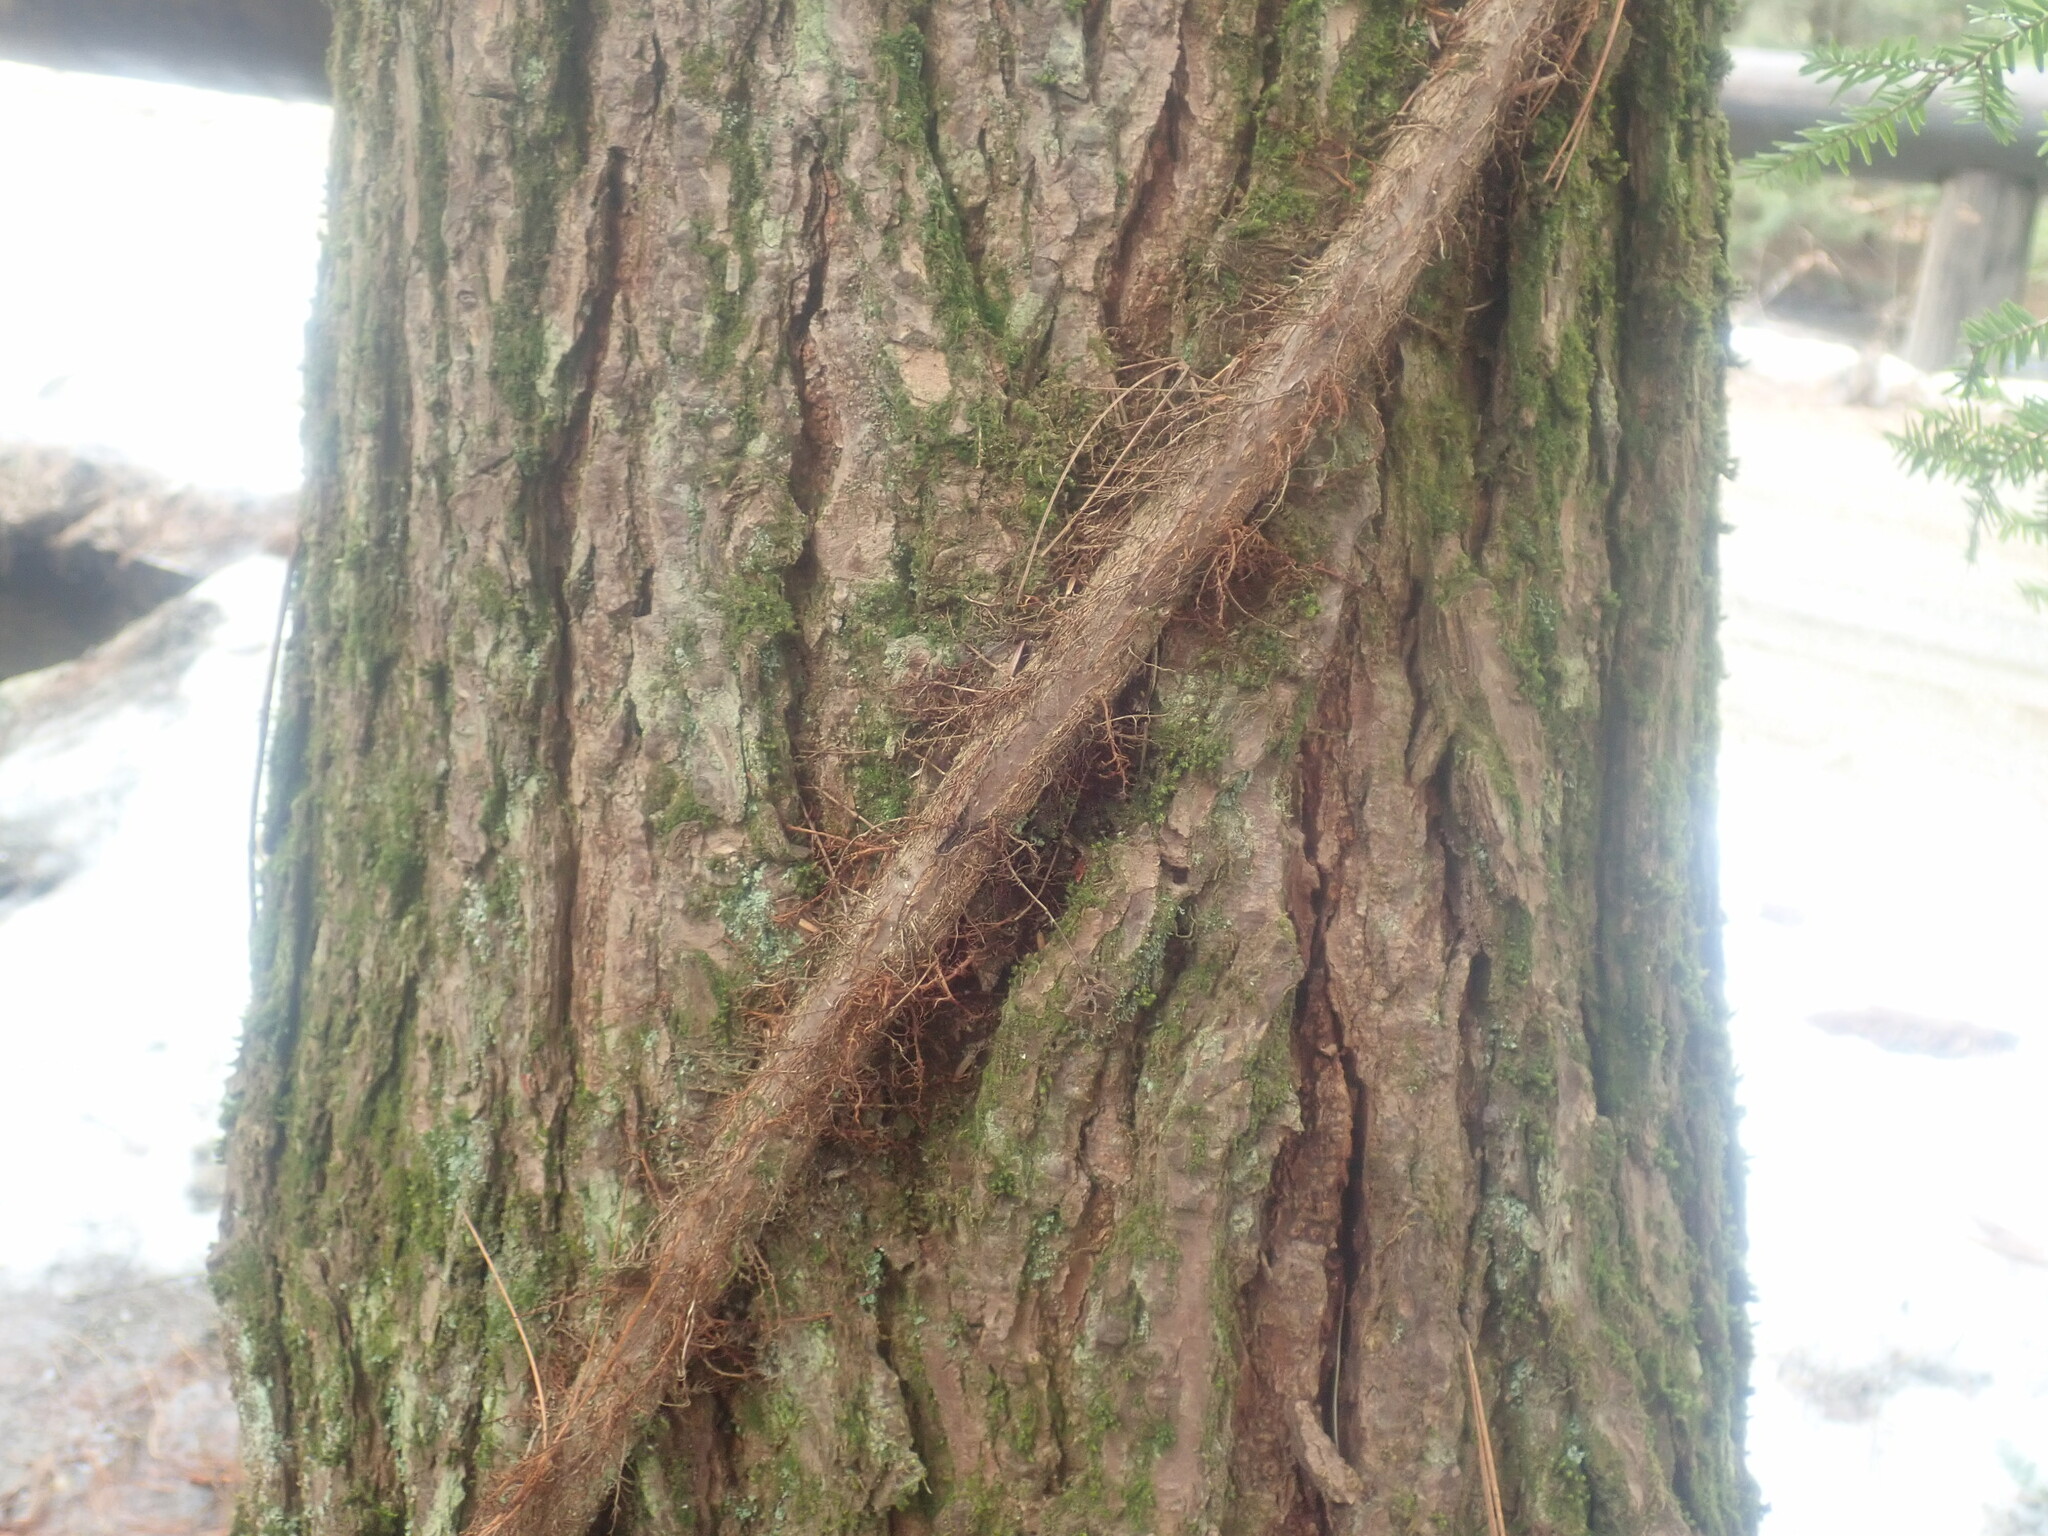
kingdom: Plantae
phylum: Tracheophyta
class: Magnoliopsida
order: Sapindales
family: Anacardiaceae
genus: Toxicodendron
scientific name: Toxicodendron radicans
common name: Poison ivy
